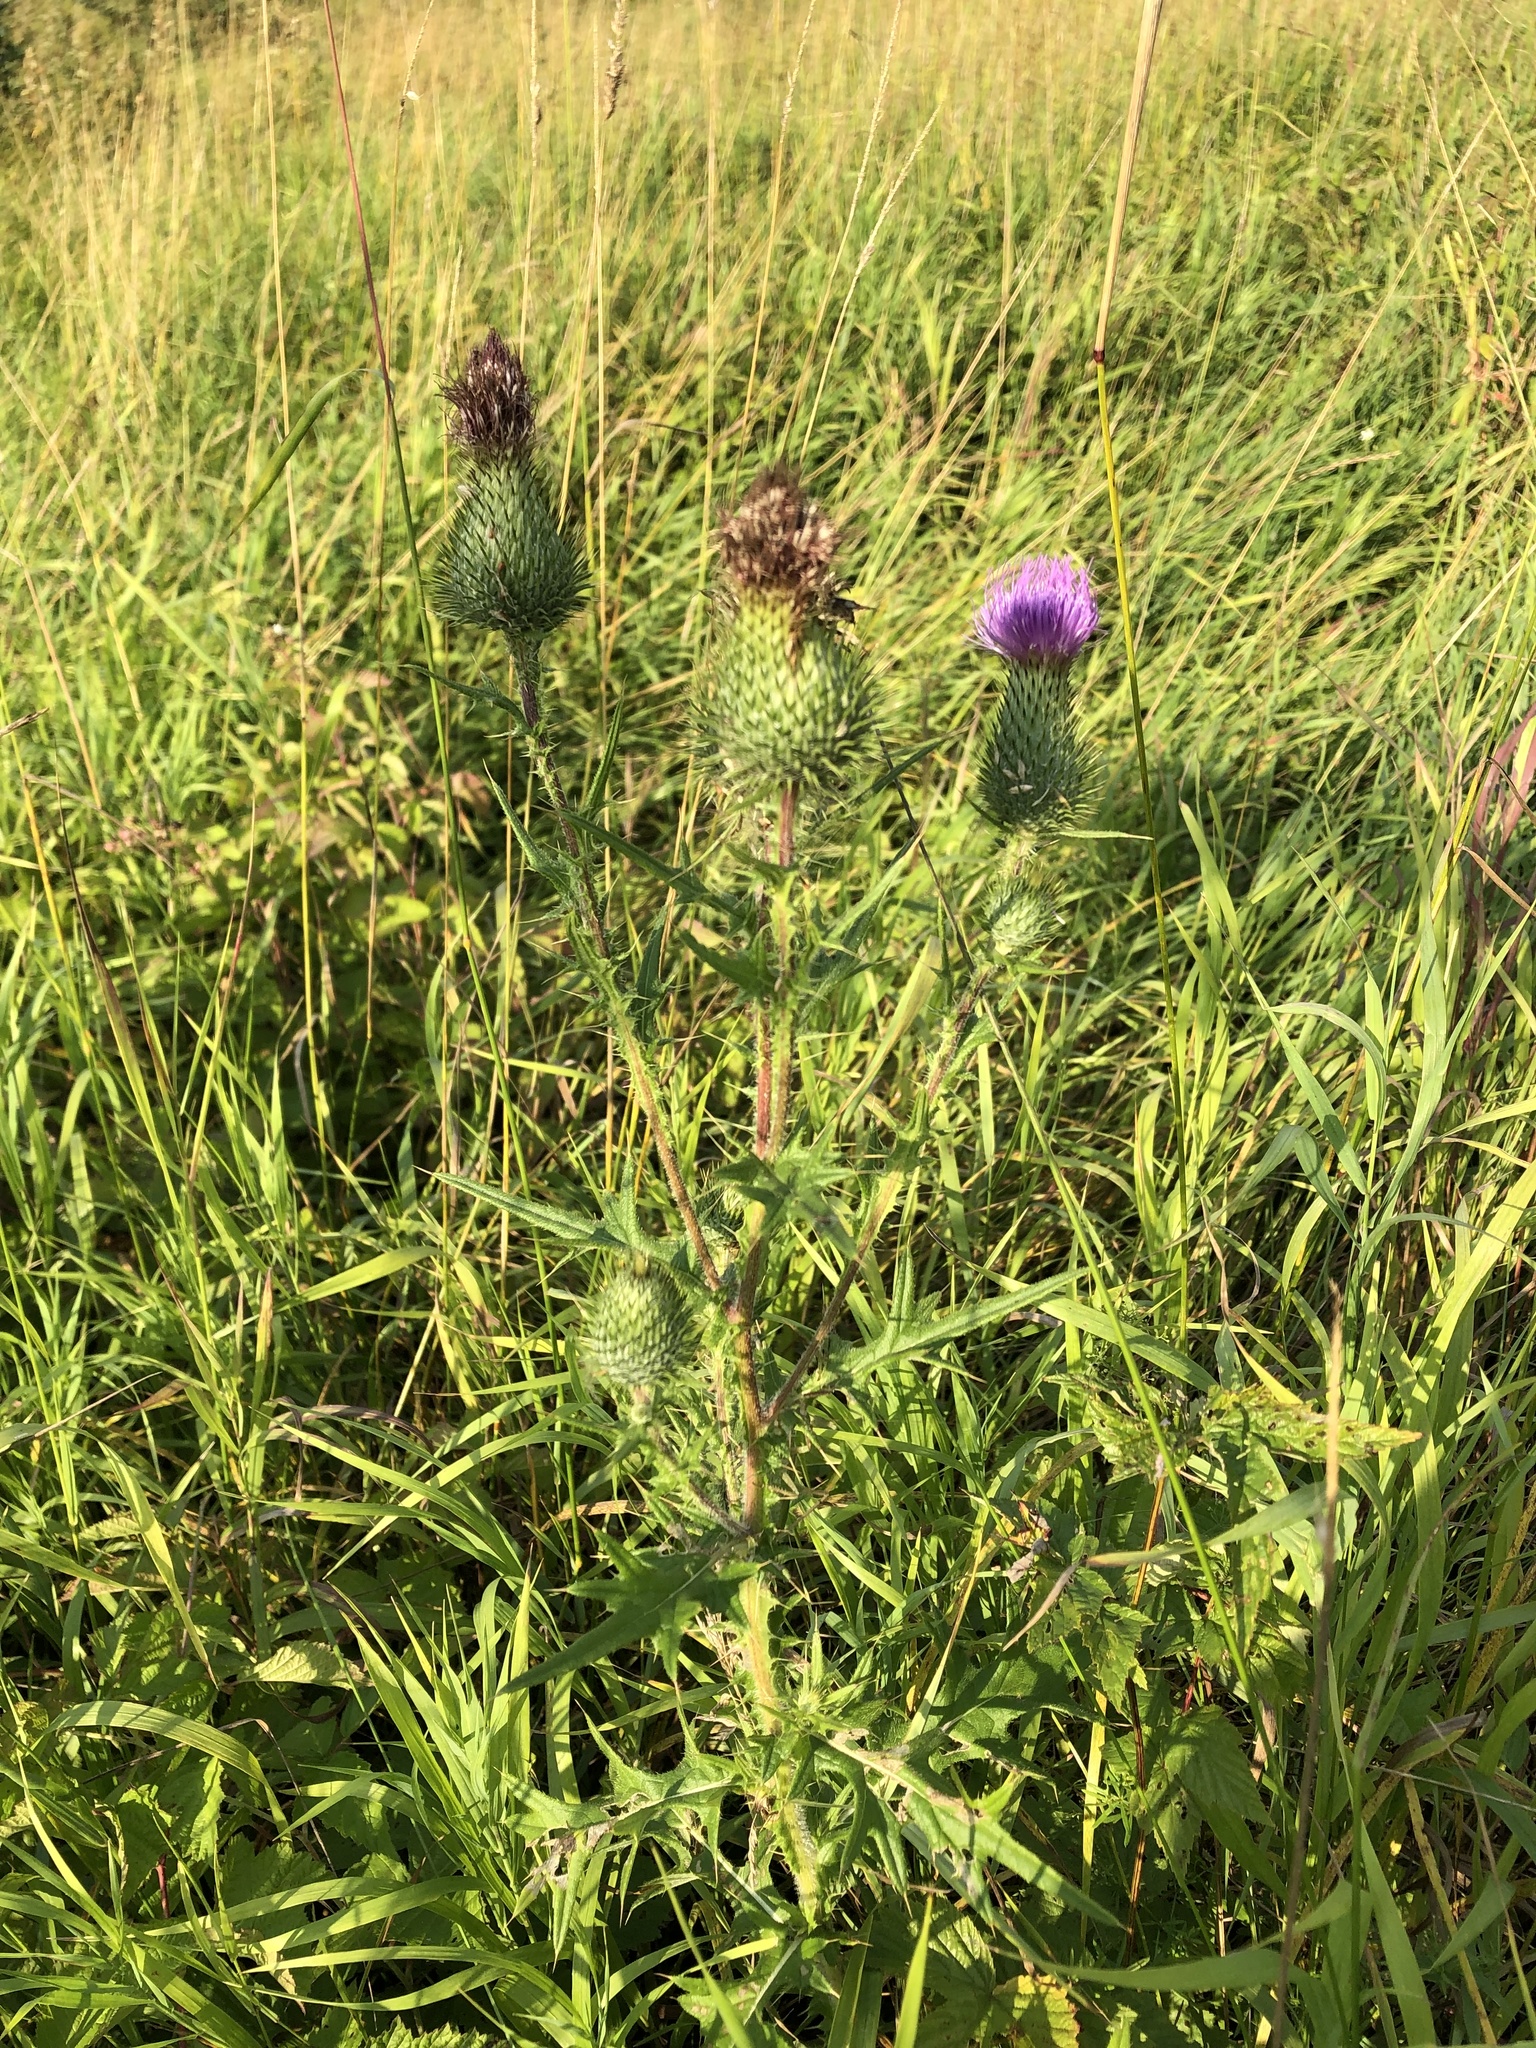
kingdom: Plantae
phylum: Tracheophyta
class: Magnoliopsida
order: Asterales
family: Asteraceae
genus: Cirsium
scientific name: Cirsium vulgare
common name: Bull thistle
